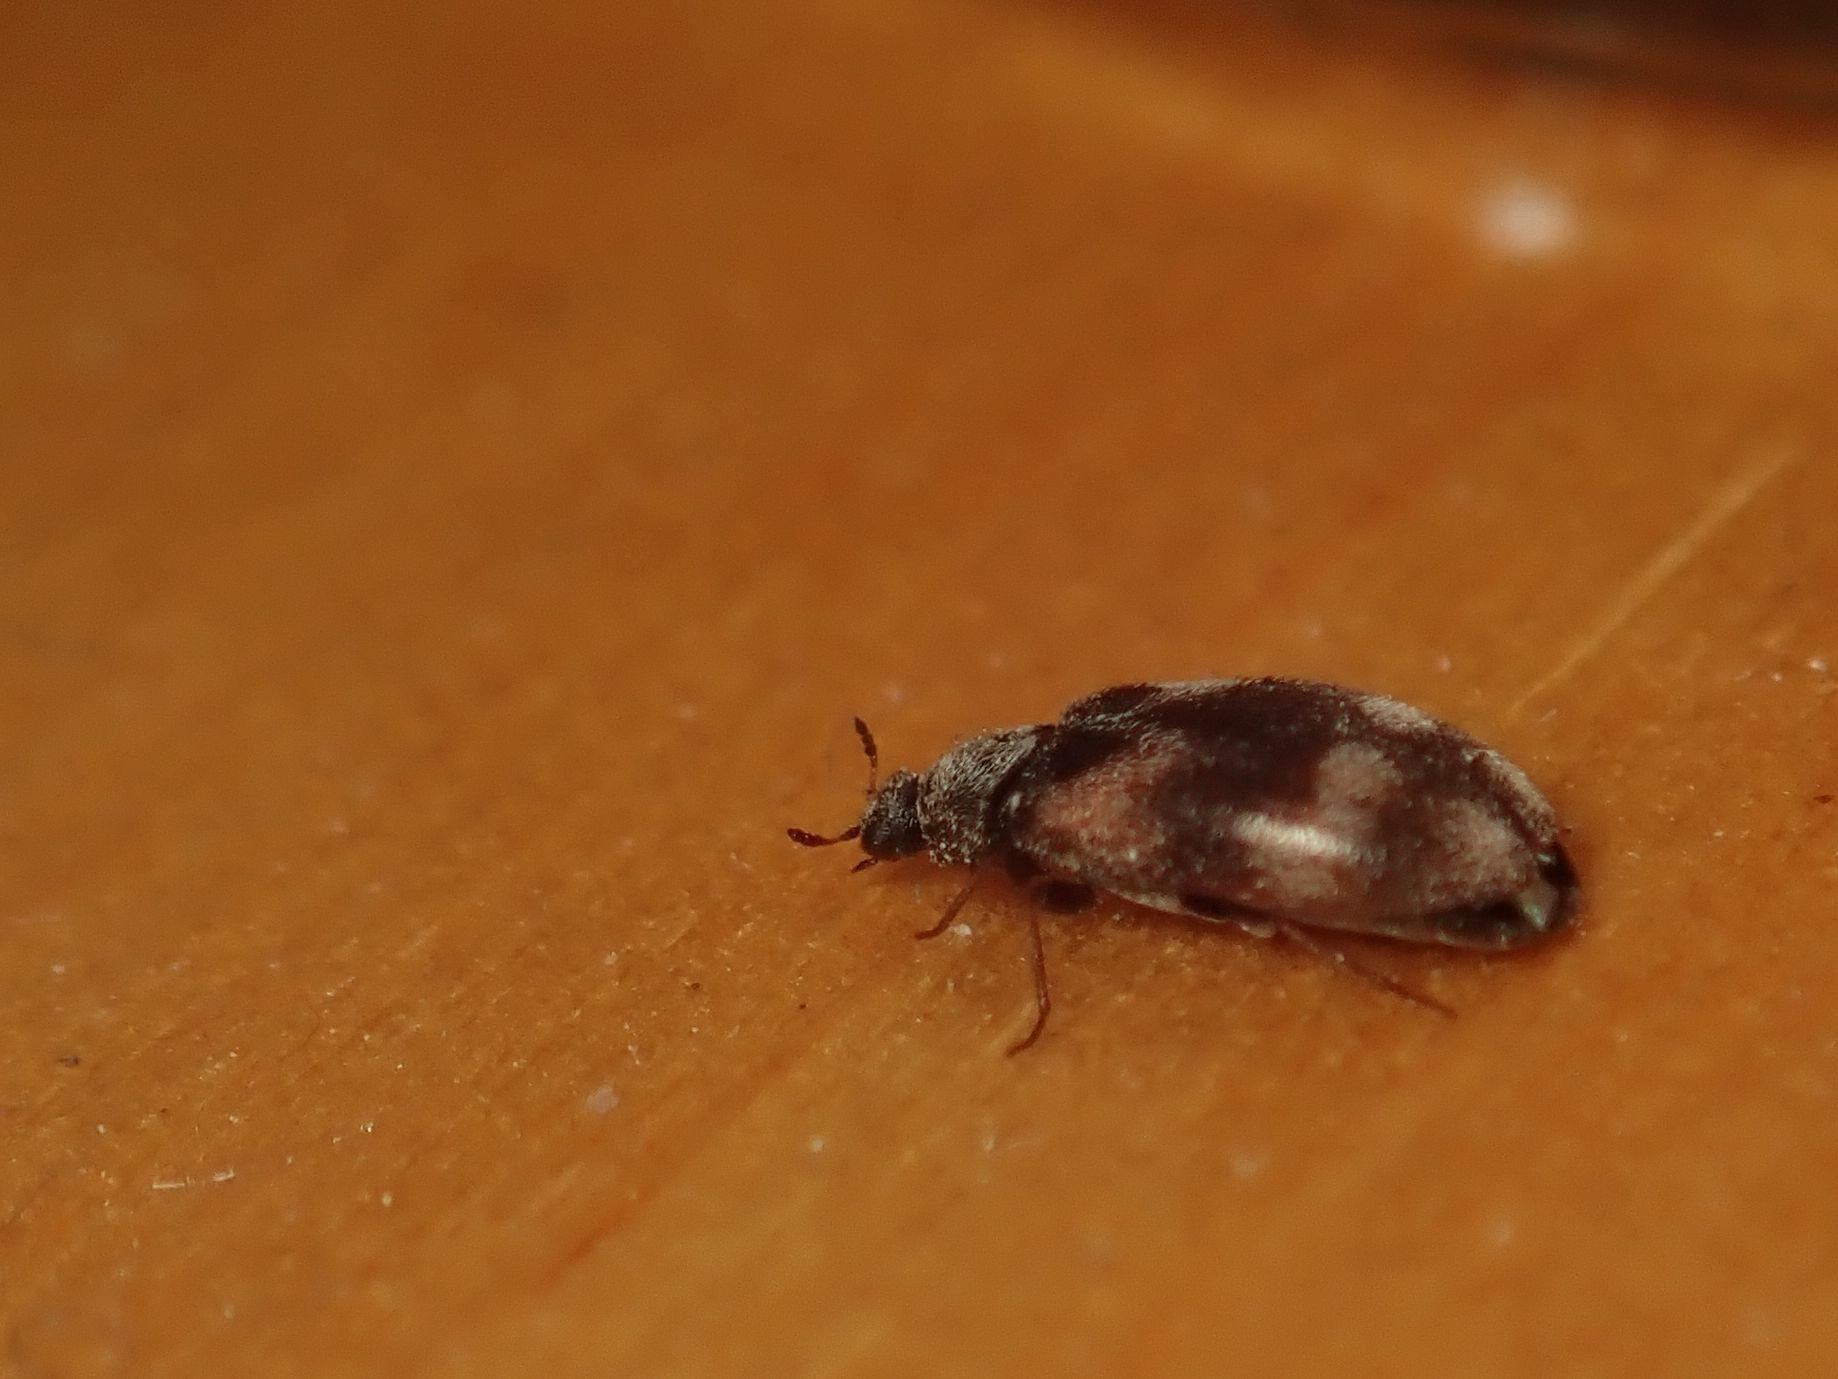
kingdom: Animalia
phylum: Arthropoda
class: Insecta
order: Coleoptera
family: Dermestidae
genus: Trogoderma
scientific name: Trogoderma angustum
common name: Skin beetle
